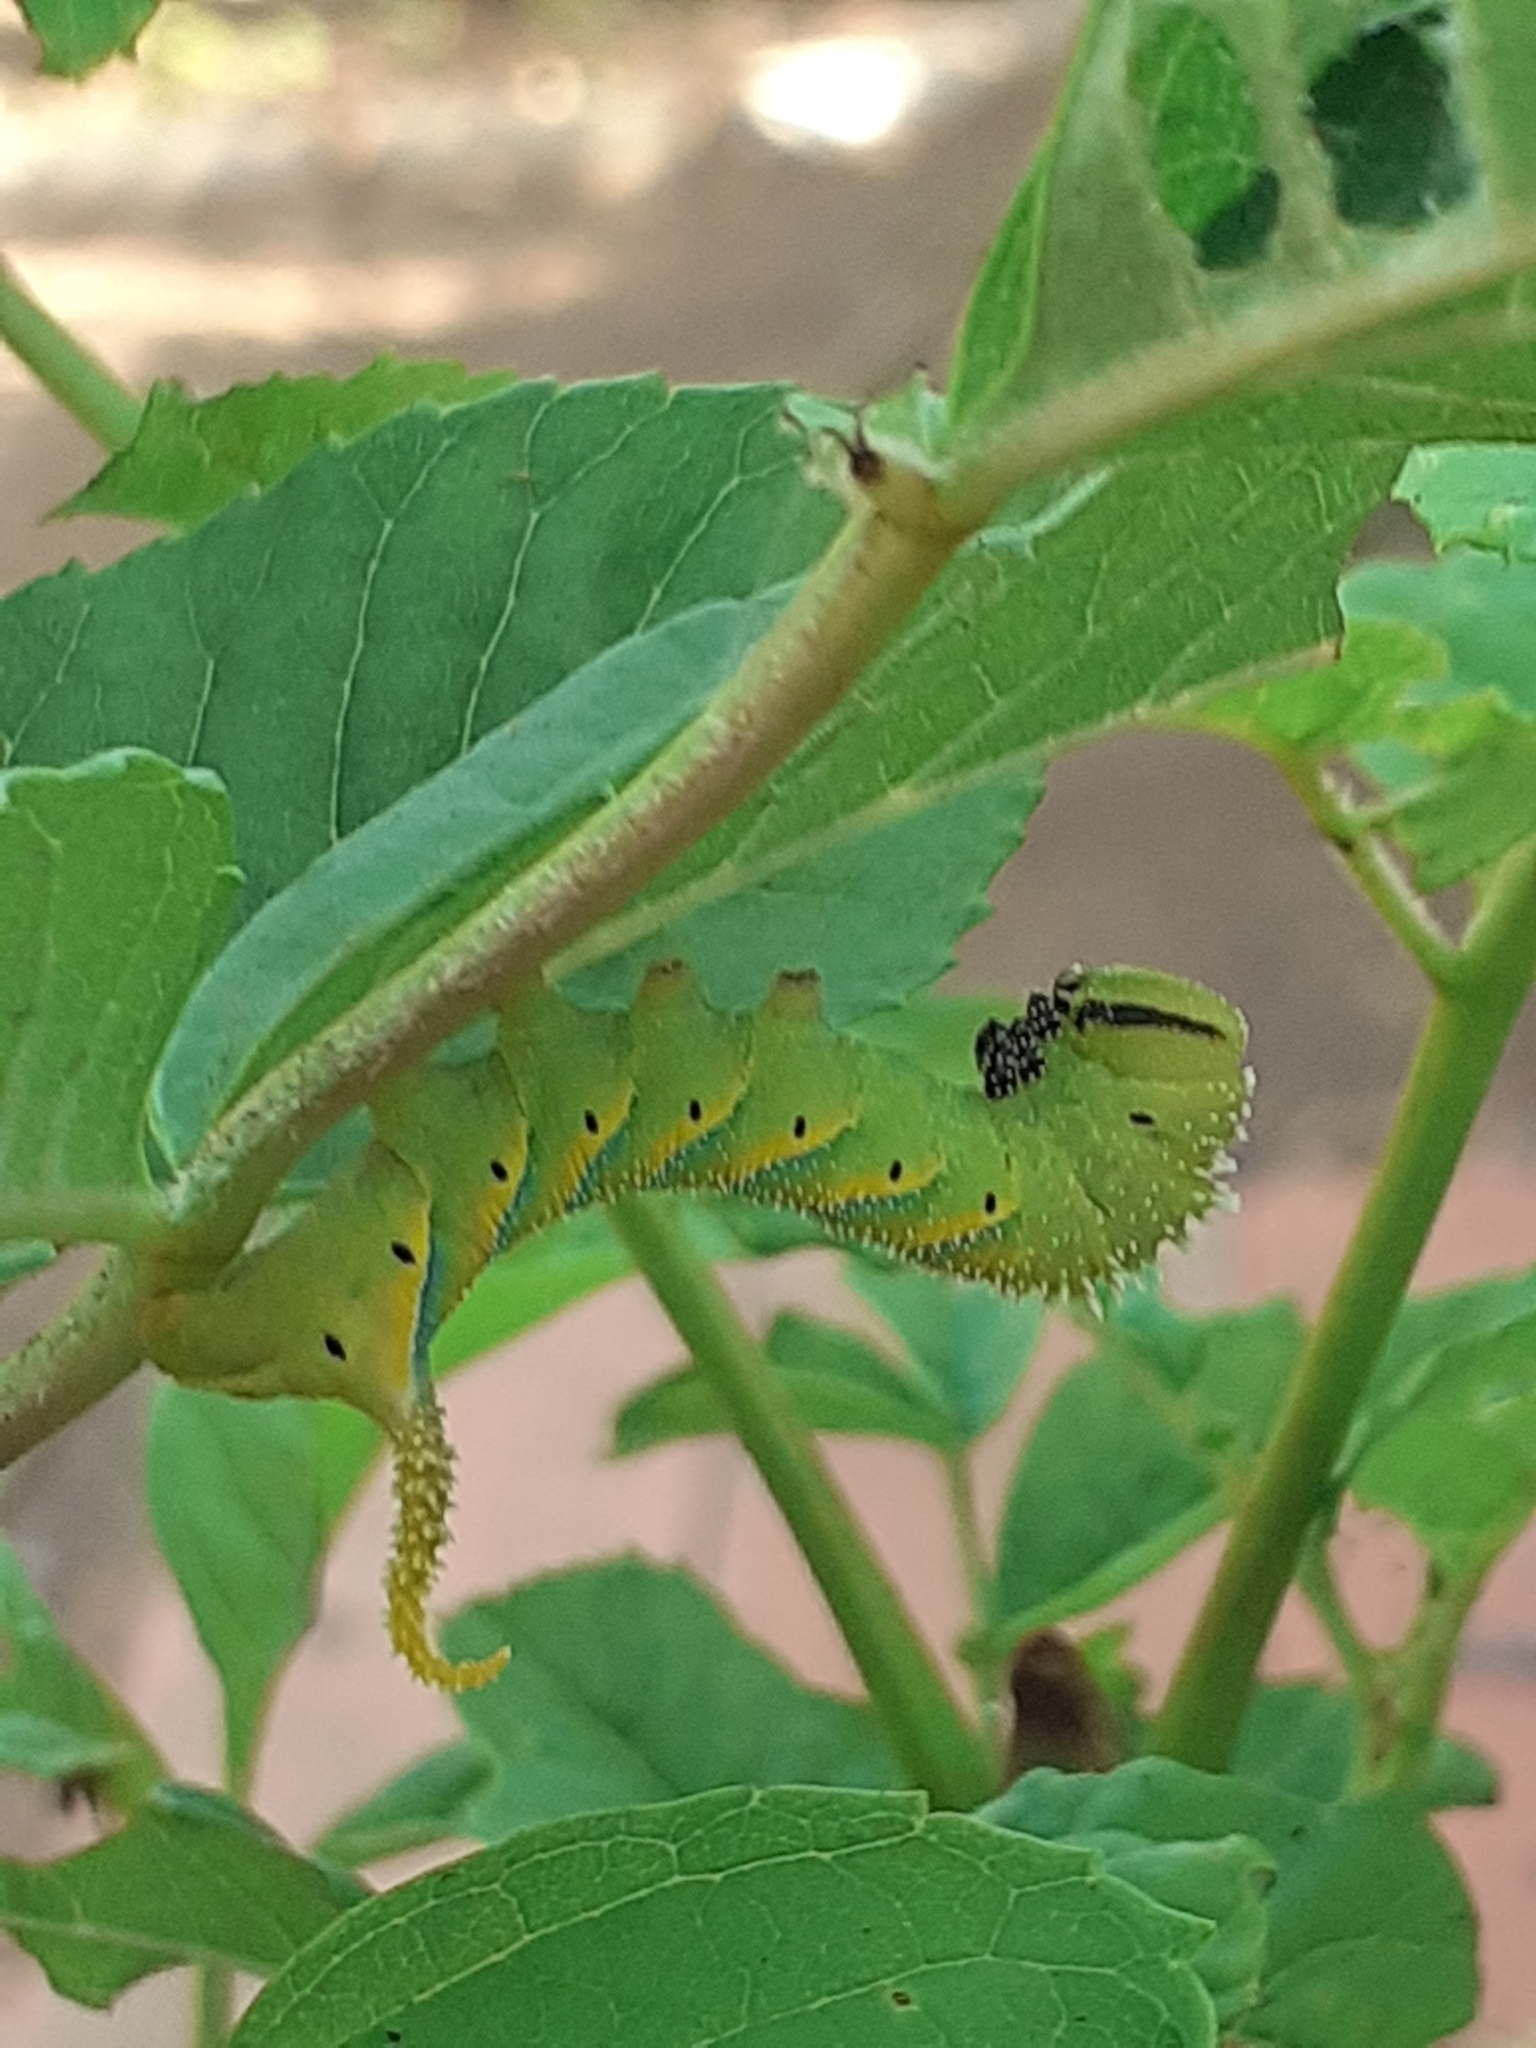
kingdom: Animalia
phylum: Arthropoda
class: Insecta
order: Lepidoptera
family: Sphingidae
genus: Acherontia
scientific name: Acherontia atropos
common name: Death's-head hawk moth
